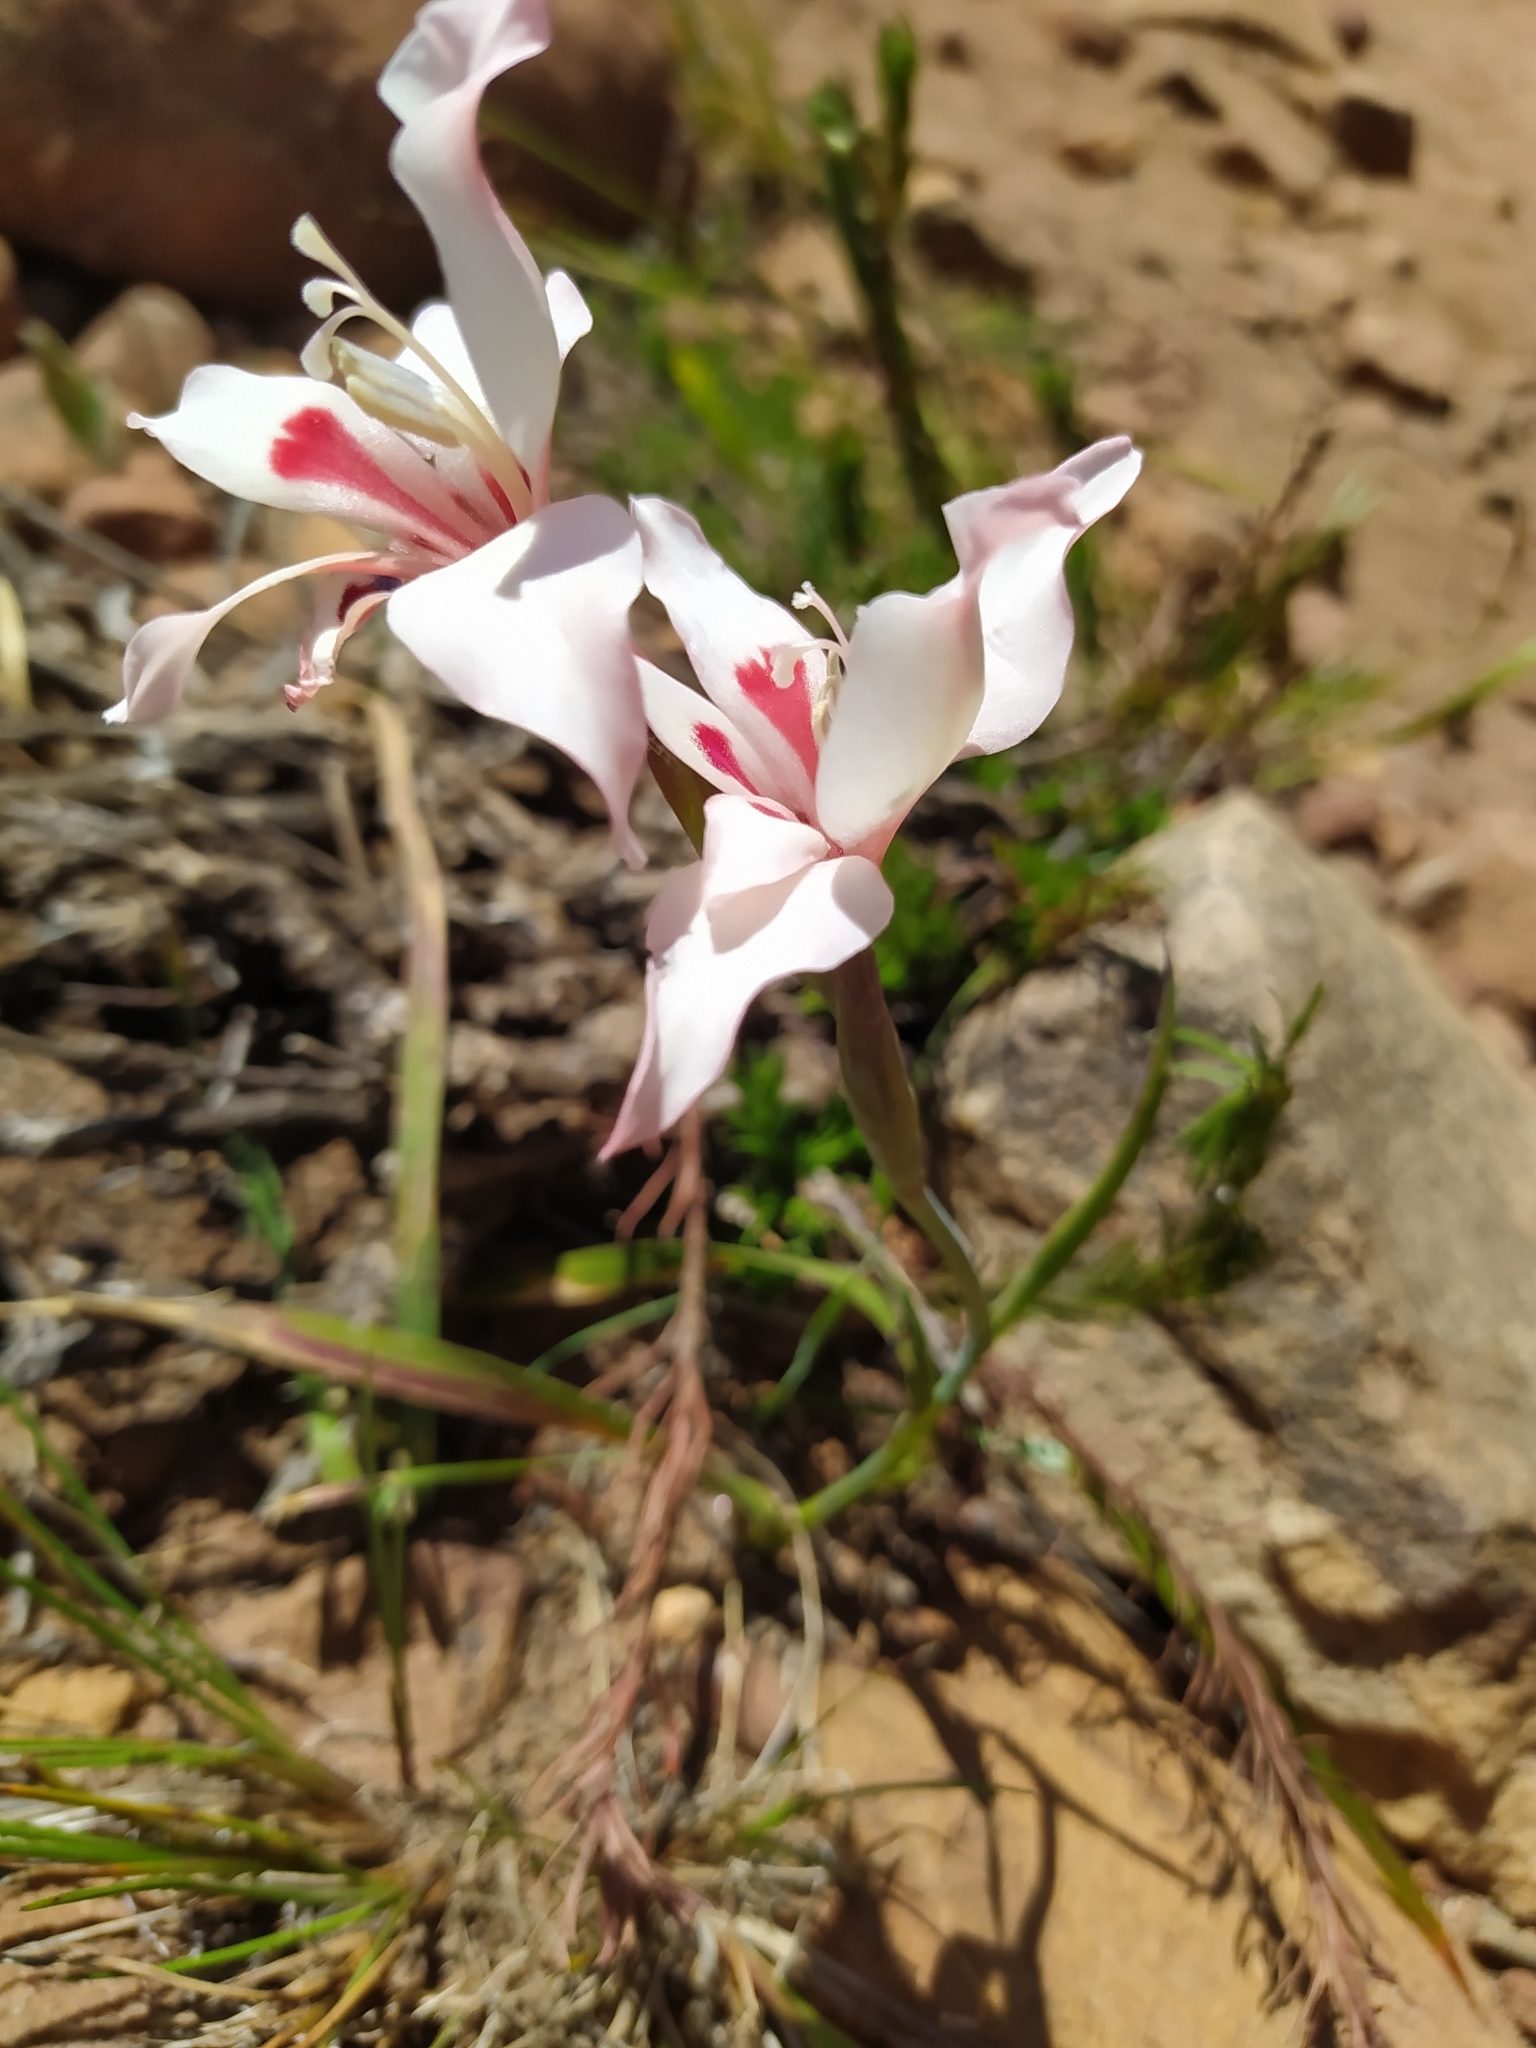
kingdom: Plantae
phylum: Tracheophyta
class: Liliopsida
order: Asparagales
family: Iridaceae
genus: Gladiolus
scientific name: Gladiolus carneus
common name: Painted-lady
